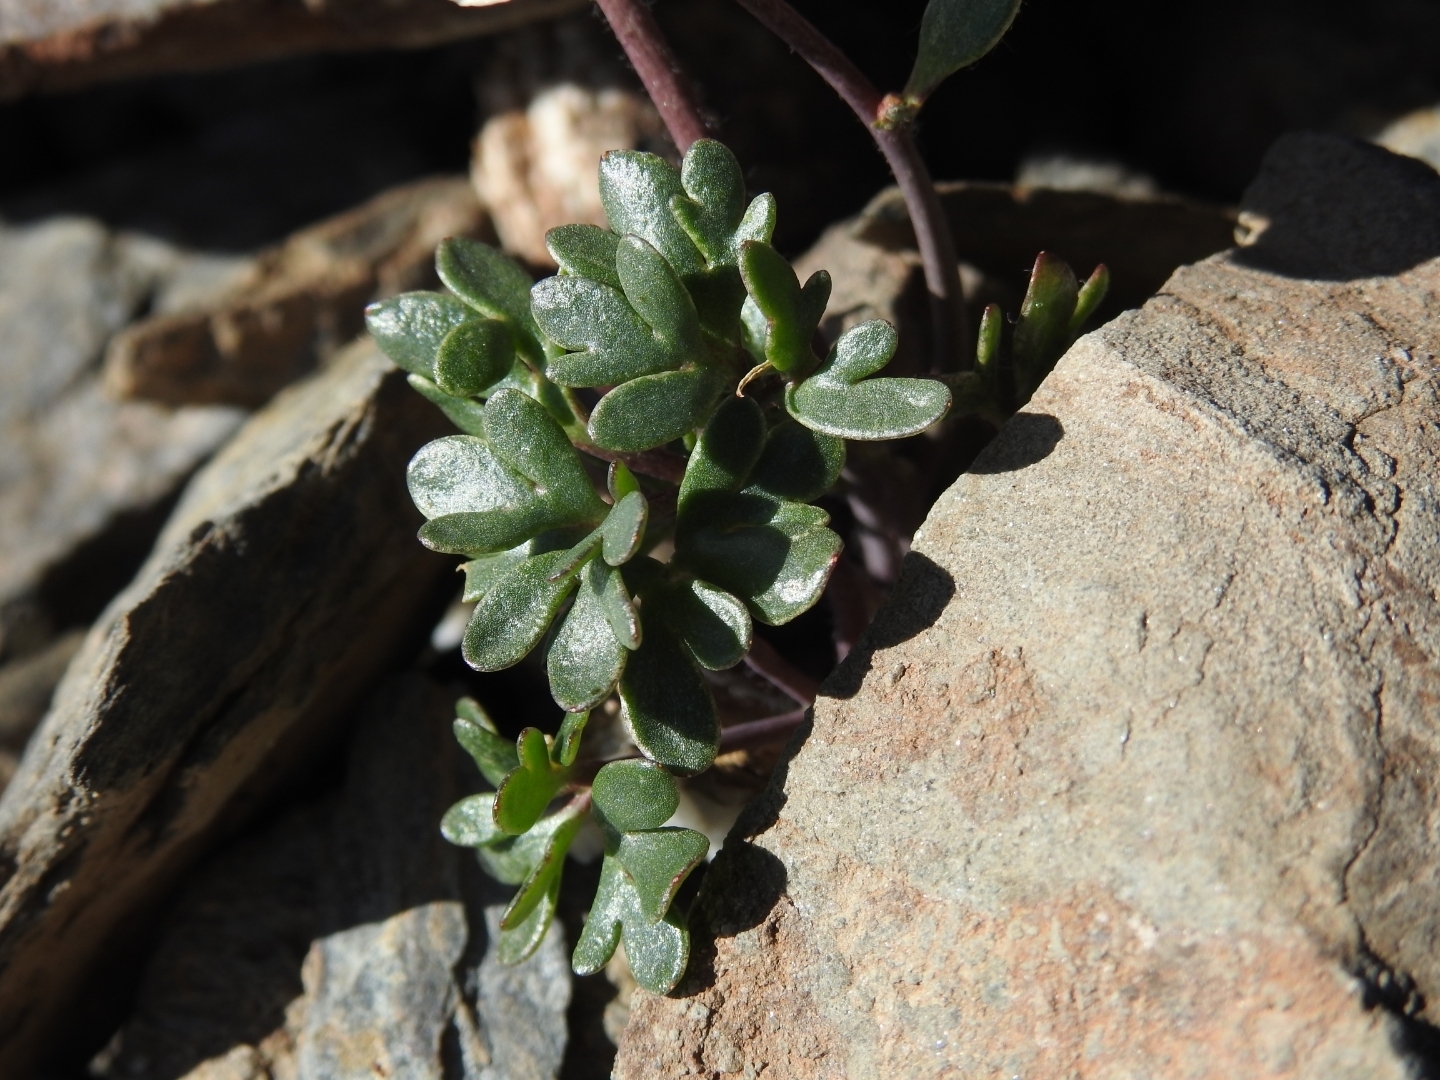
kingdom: Plantae
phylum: Tracheophyta
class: Magnoliopsida
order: Ranunculales
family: Ranunculaceae
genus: Ranunculus
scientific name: Ranunculus glacialis
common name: Glacier buttercup
